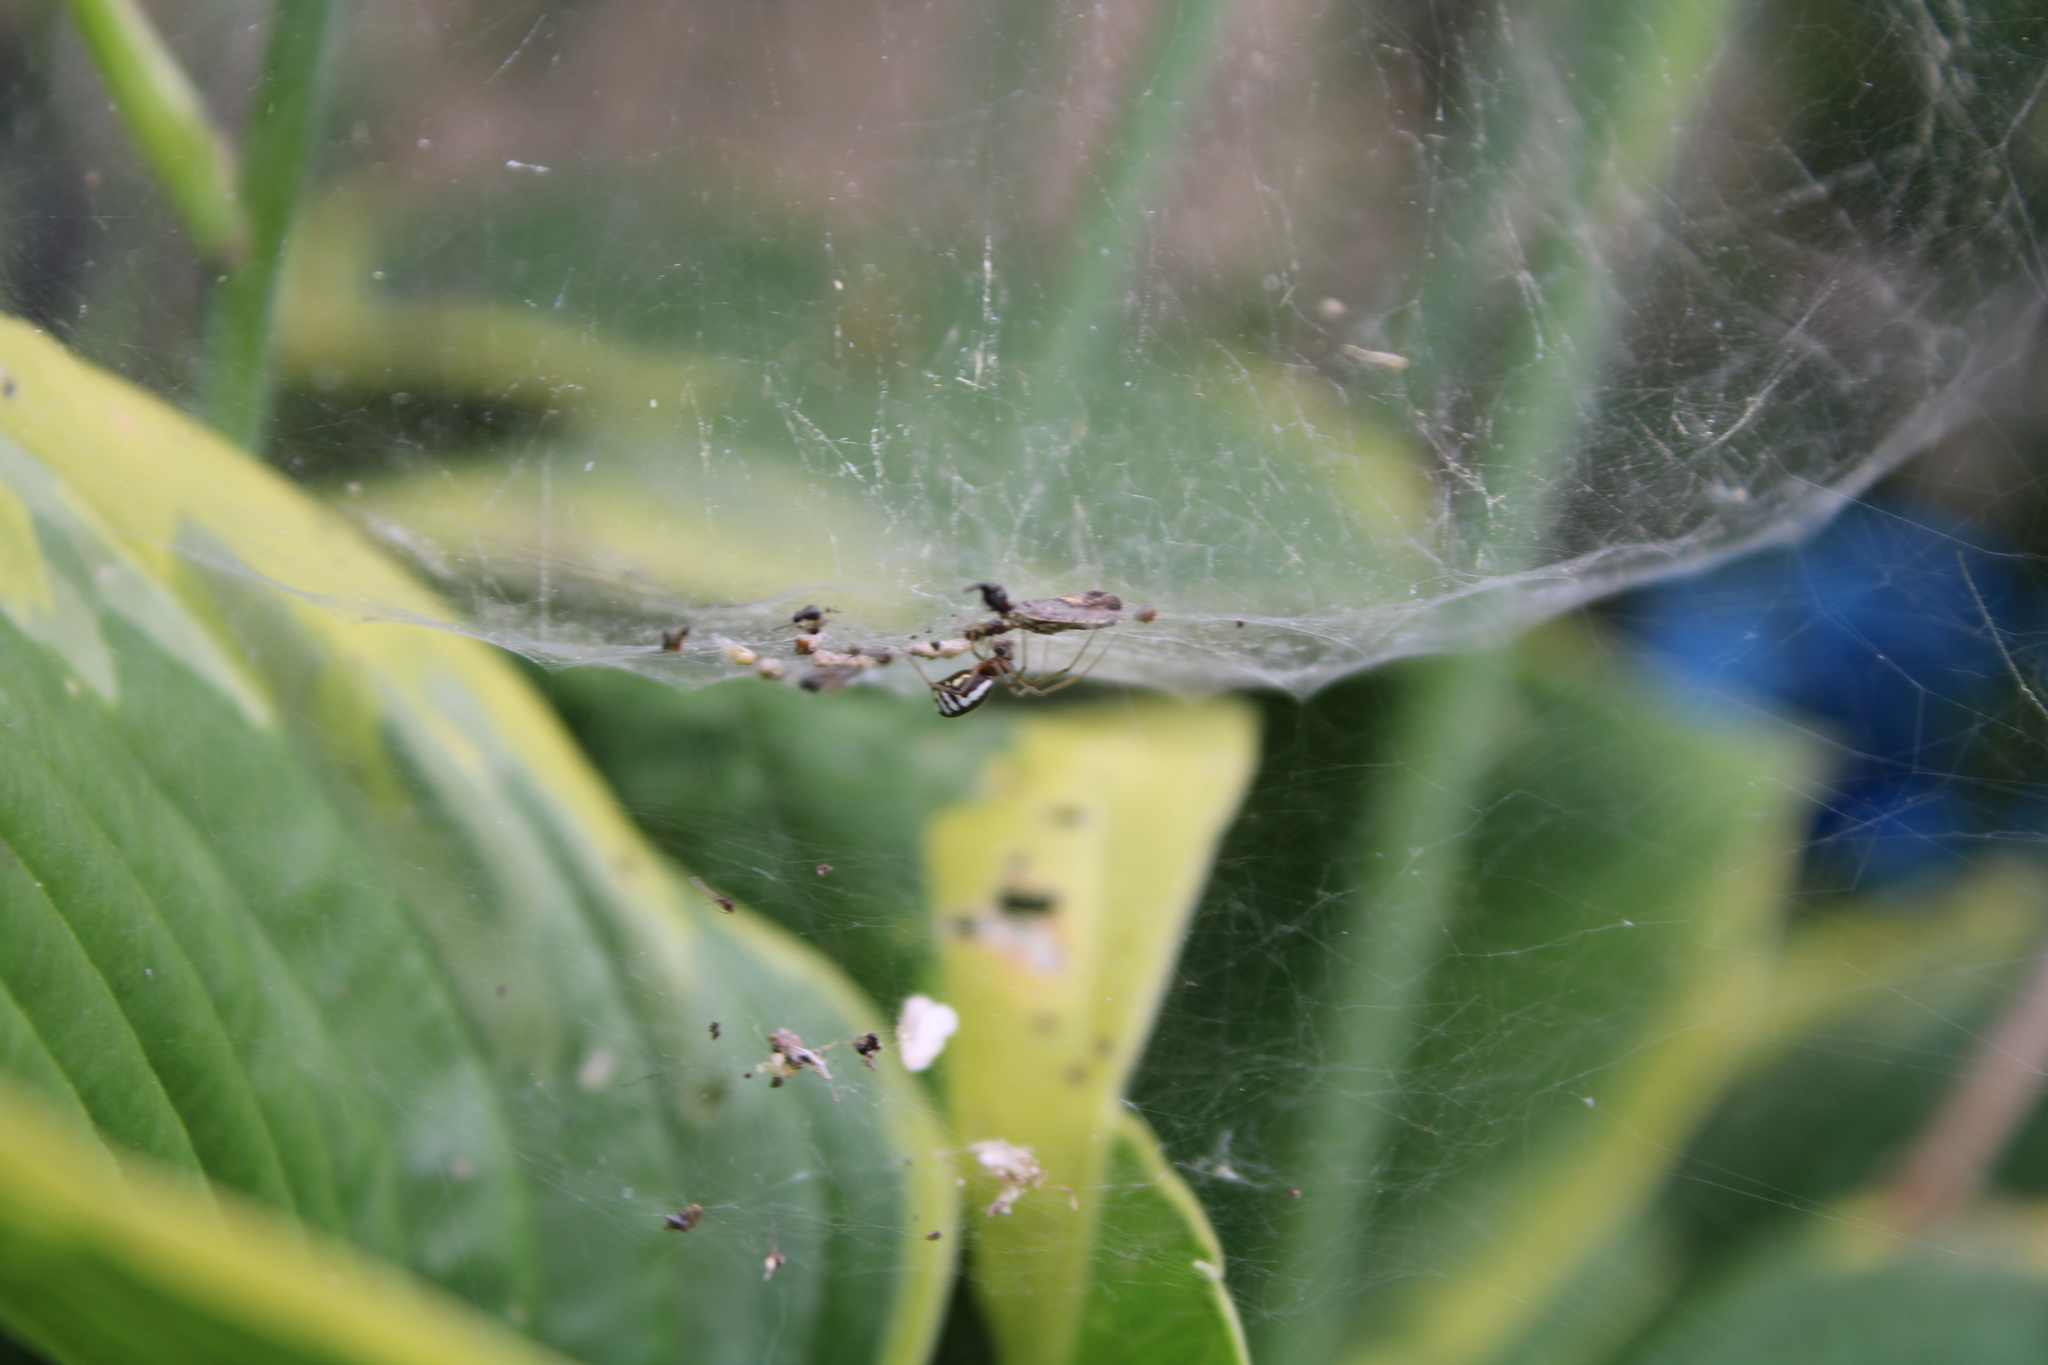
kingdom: Animalia
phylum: Arthropoda
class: Arachnida
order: Araneae
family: Linyphiidae
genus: Frontinella
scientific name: Frontinella pyramitela
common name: Bowl-and-doily spider
